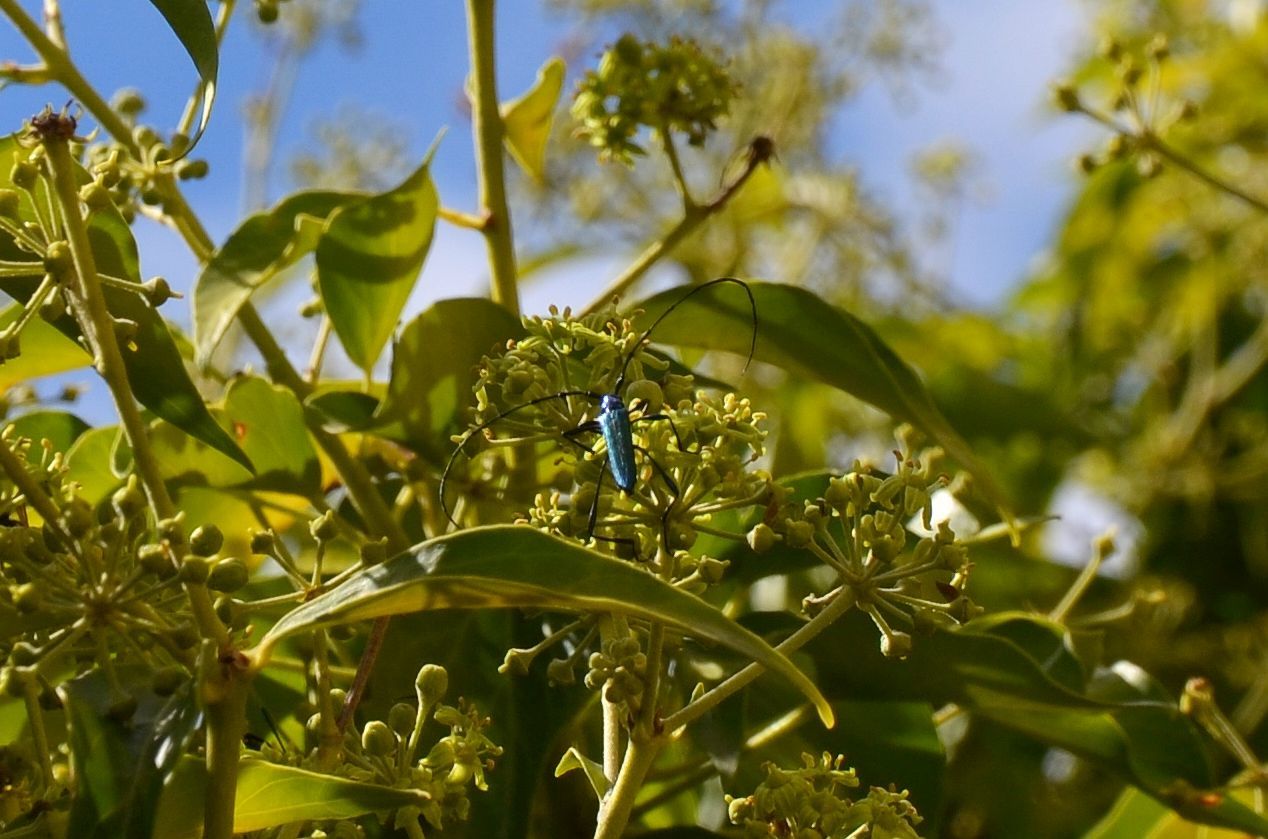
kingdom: Animalia
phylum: Arthropoda
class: Insecta
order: Coleoptera
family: Cerambycidae
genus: Promeces
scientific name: Promeces longipes
